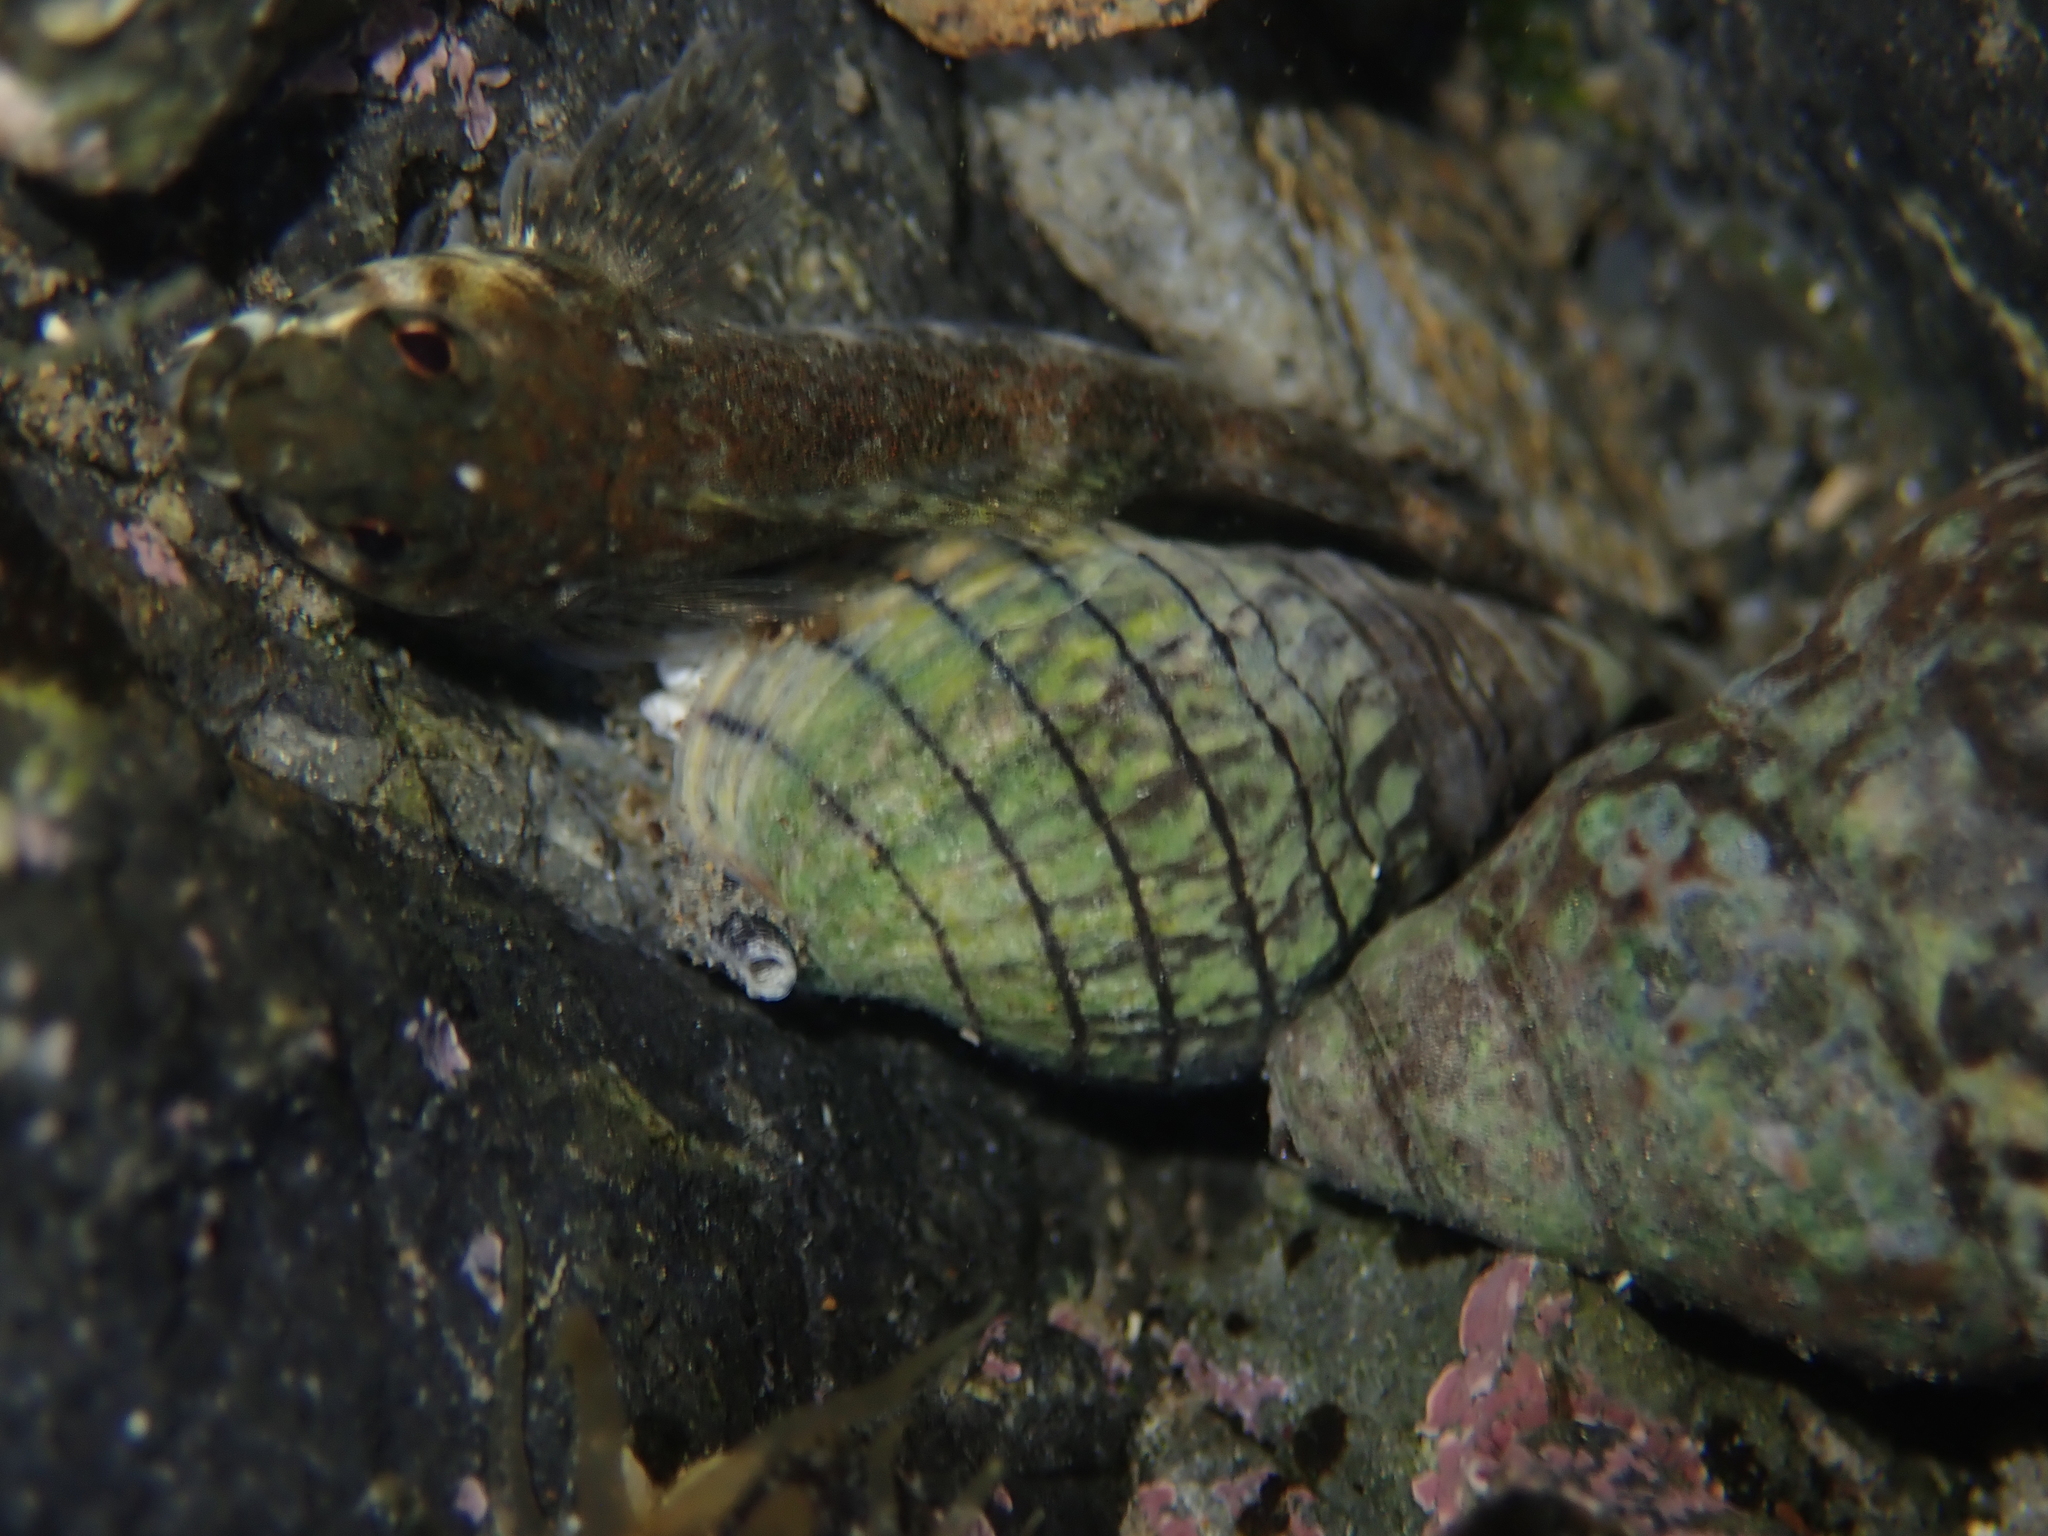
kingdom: Animalia
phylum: Mollusca
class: Gastropoda
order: Neogastropoda
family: Cominellidae
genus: Cominella
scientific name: Cominella virgata
